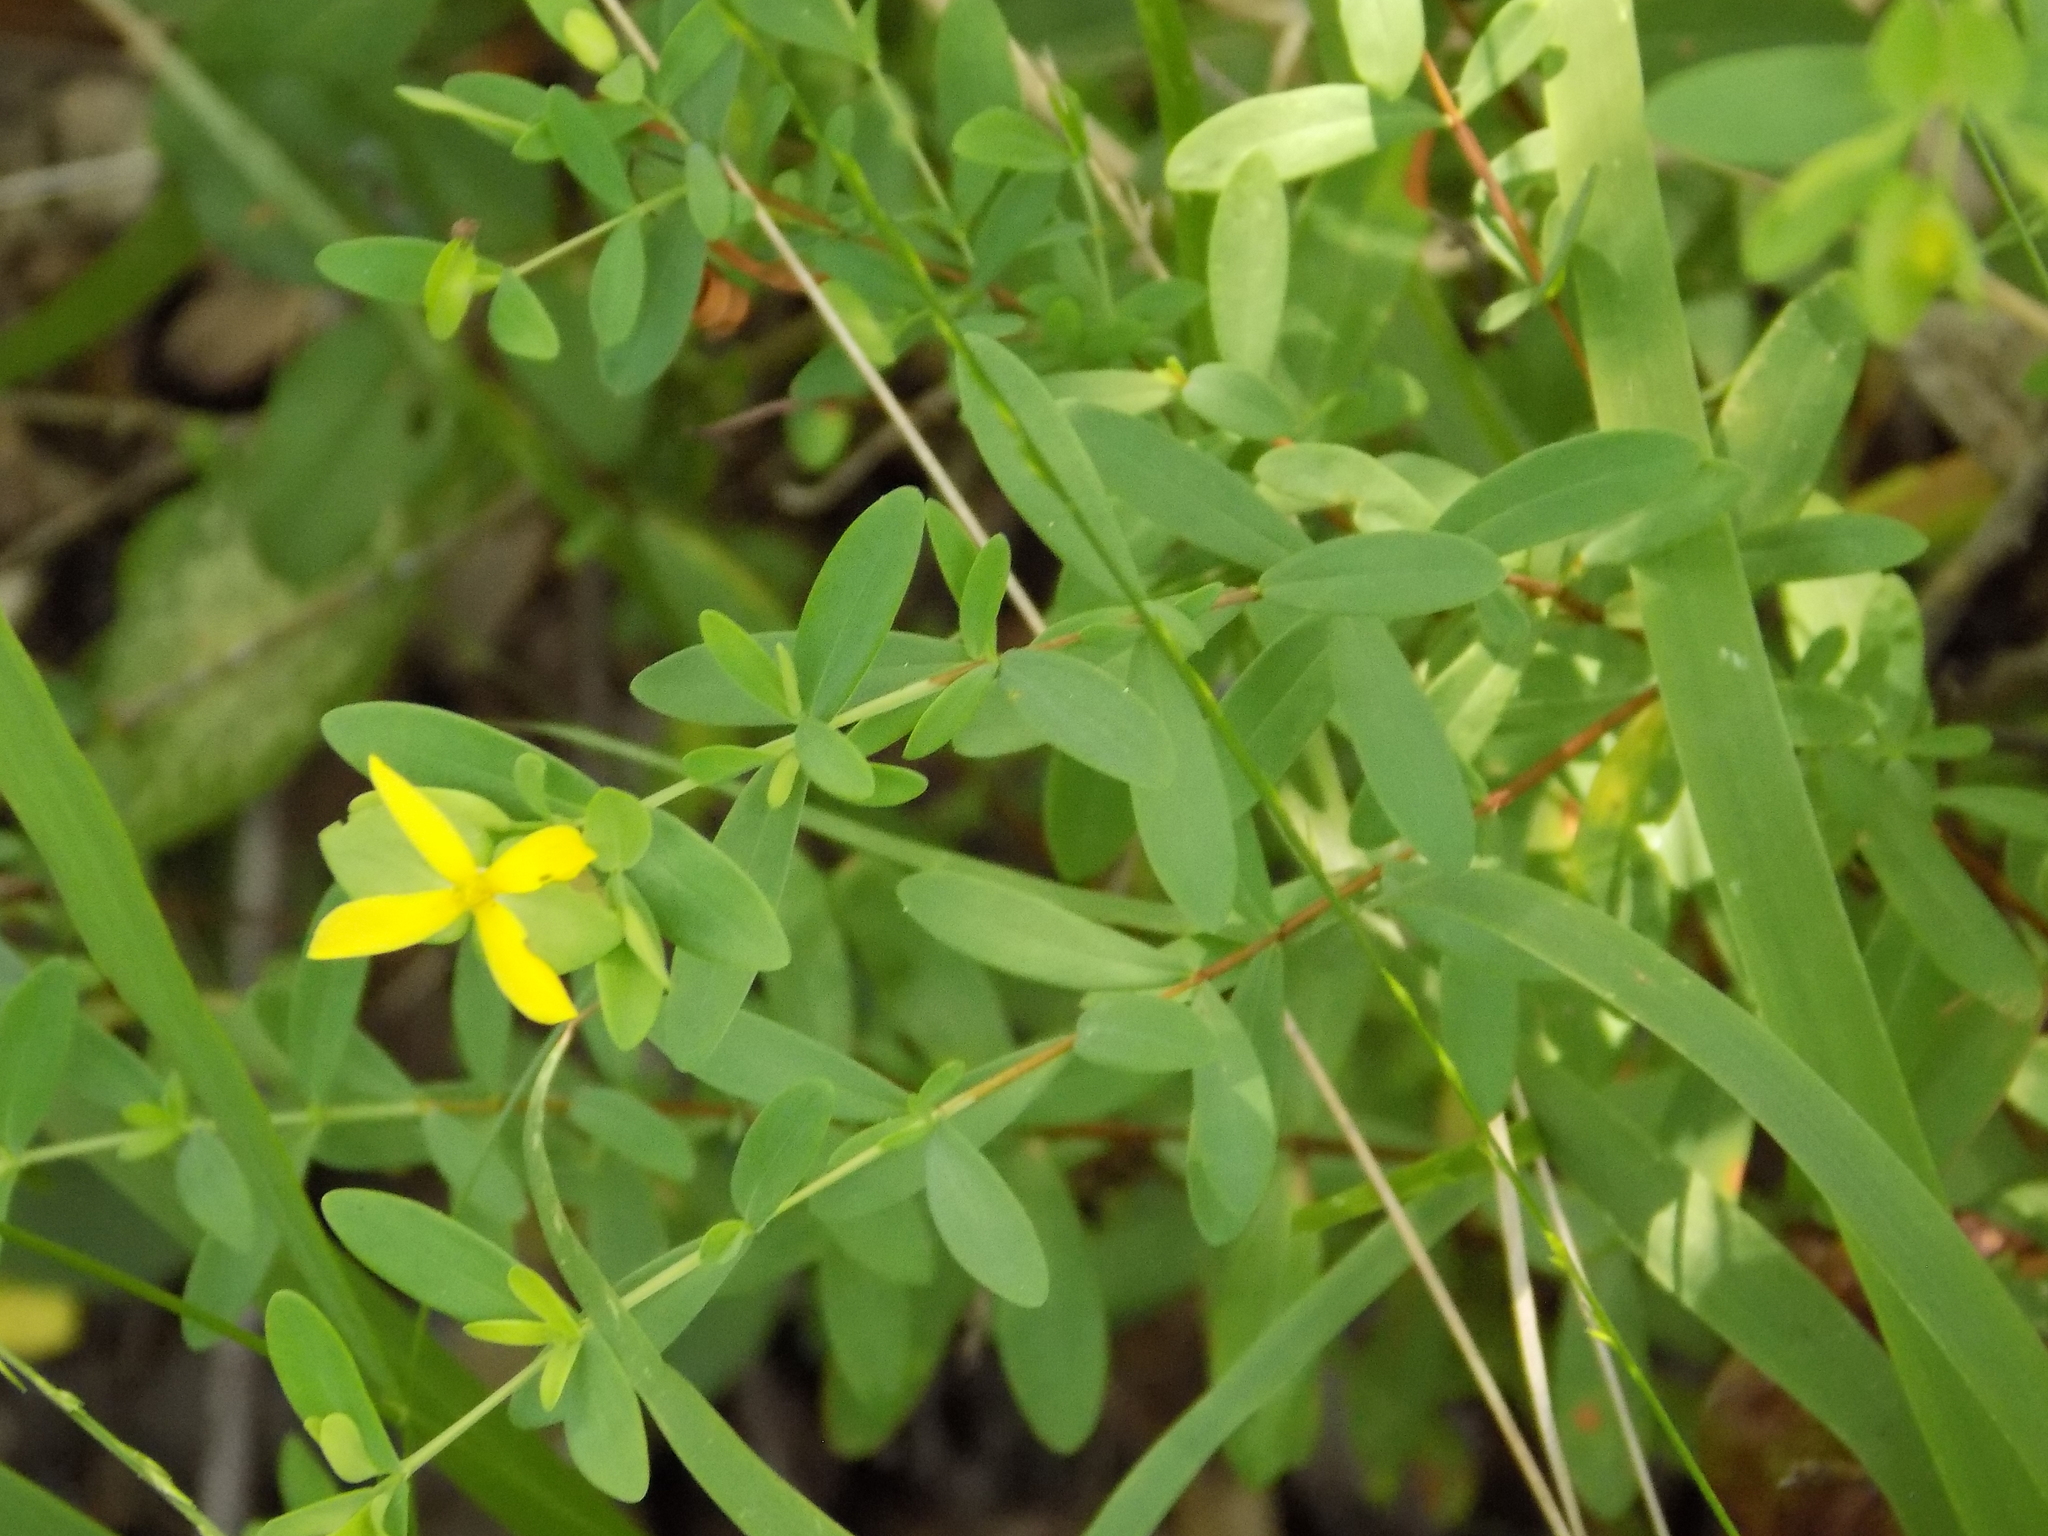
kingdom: Plantae
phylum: Tracheophyta
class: Magnoliopsida
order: Malpighiales
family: Hypericaceae
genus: Hypericum
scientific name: Hypericum hypericoides
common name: St. andrew's cross
